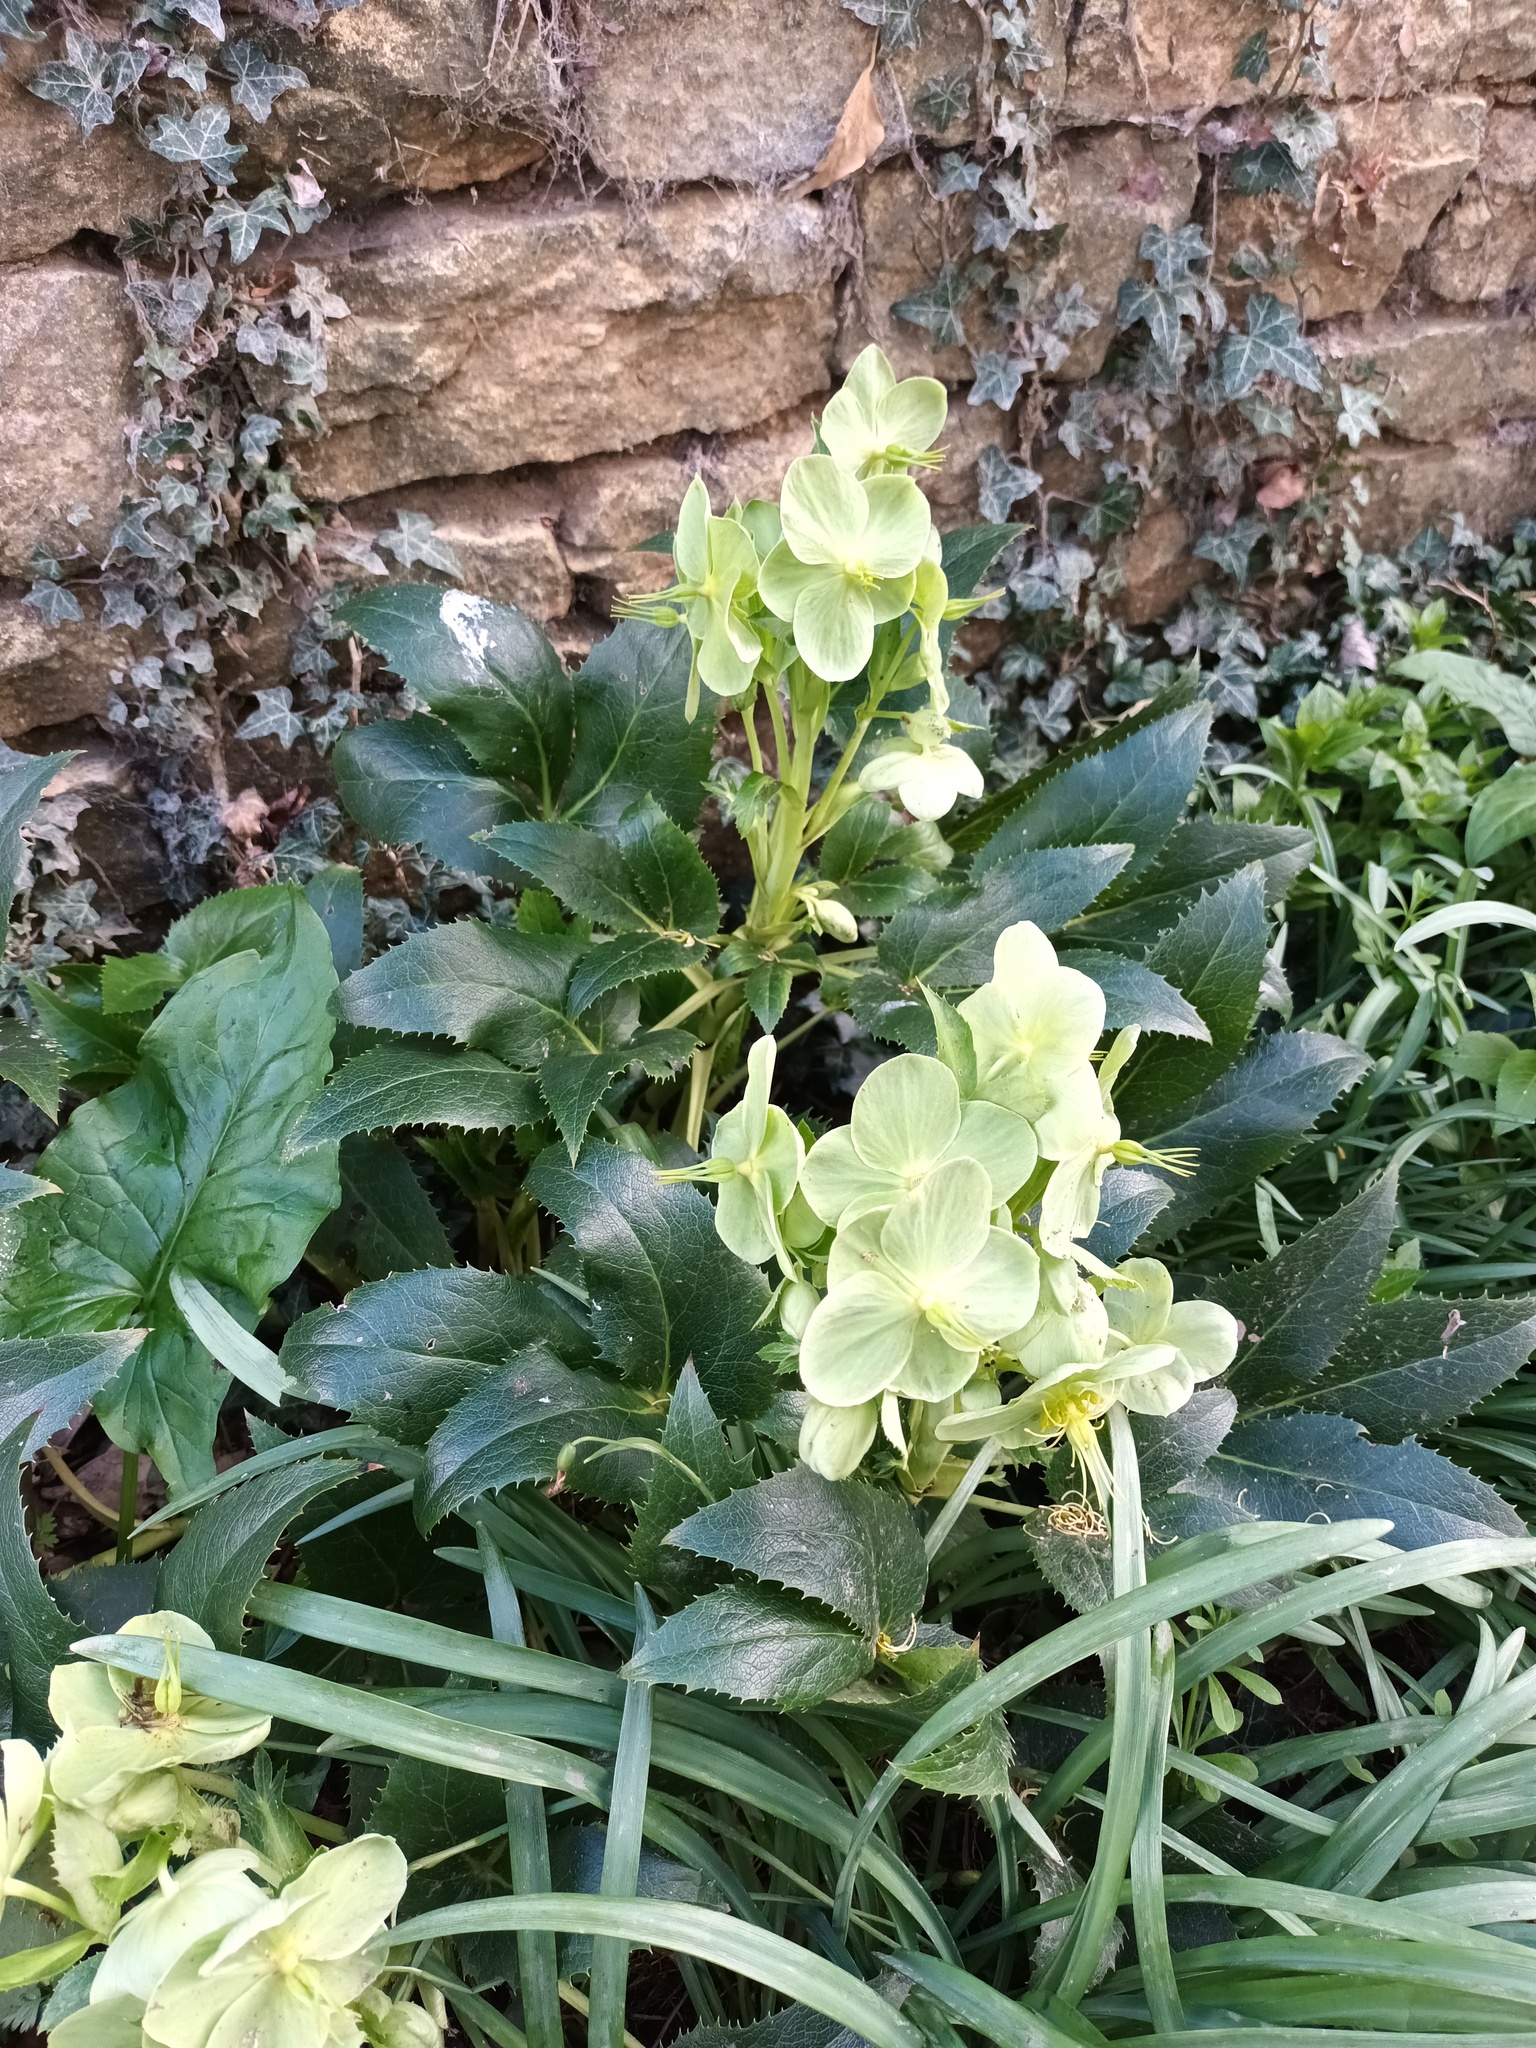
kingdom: Plantae
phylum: Tracheophyta
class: Magnoliopsida
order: Ranunculales
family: Ranunculaceae
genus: Helleborus
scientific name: Helleborus foetidus
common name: Stinking hellebore
